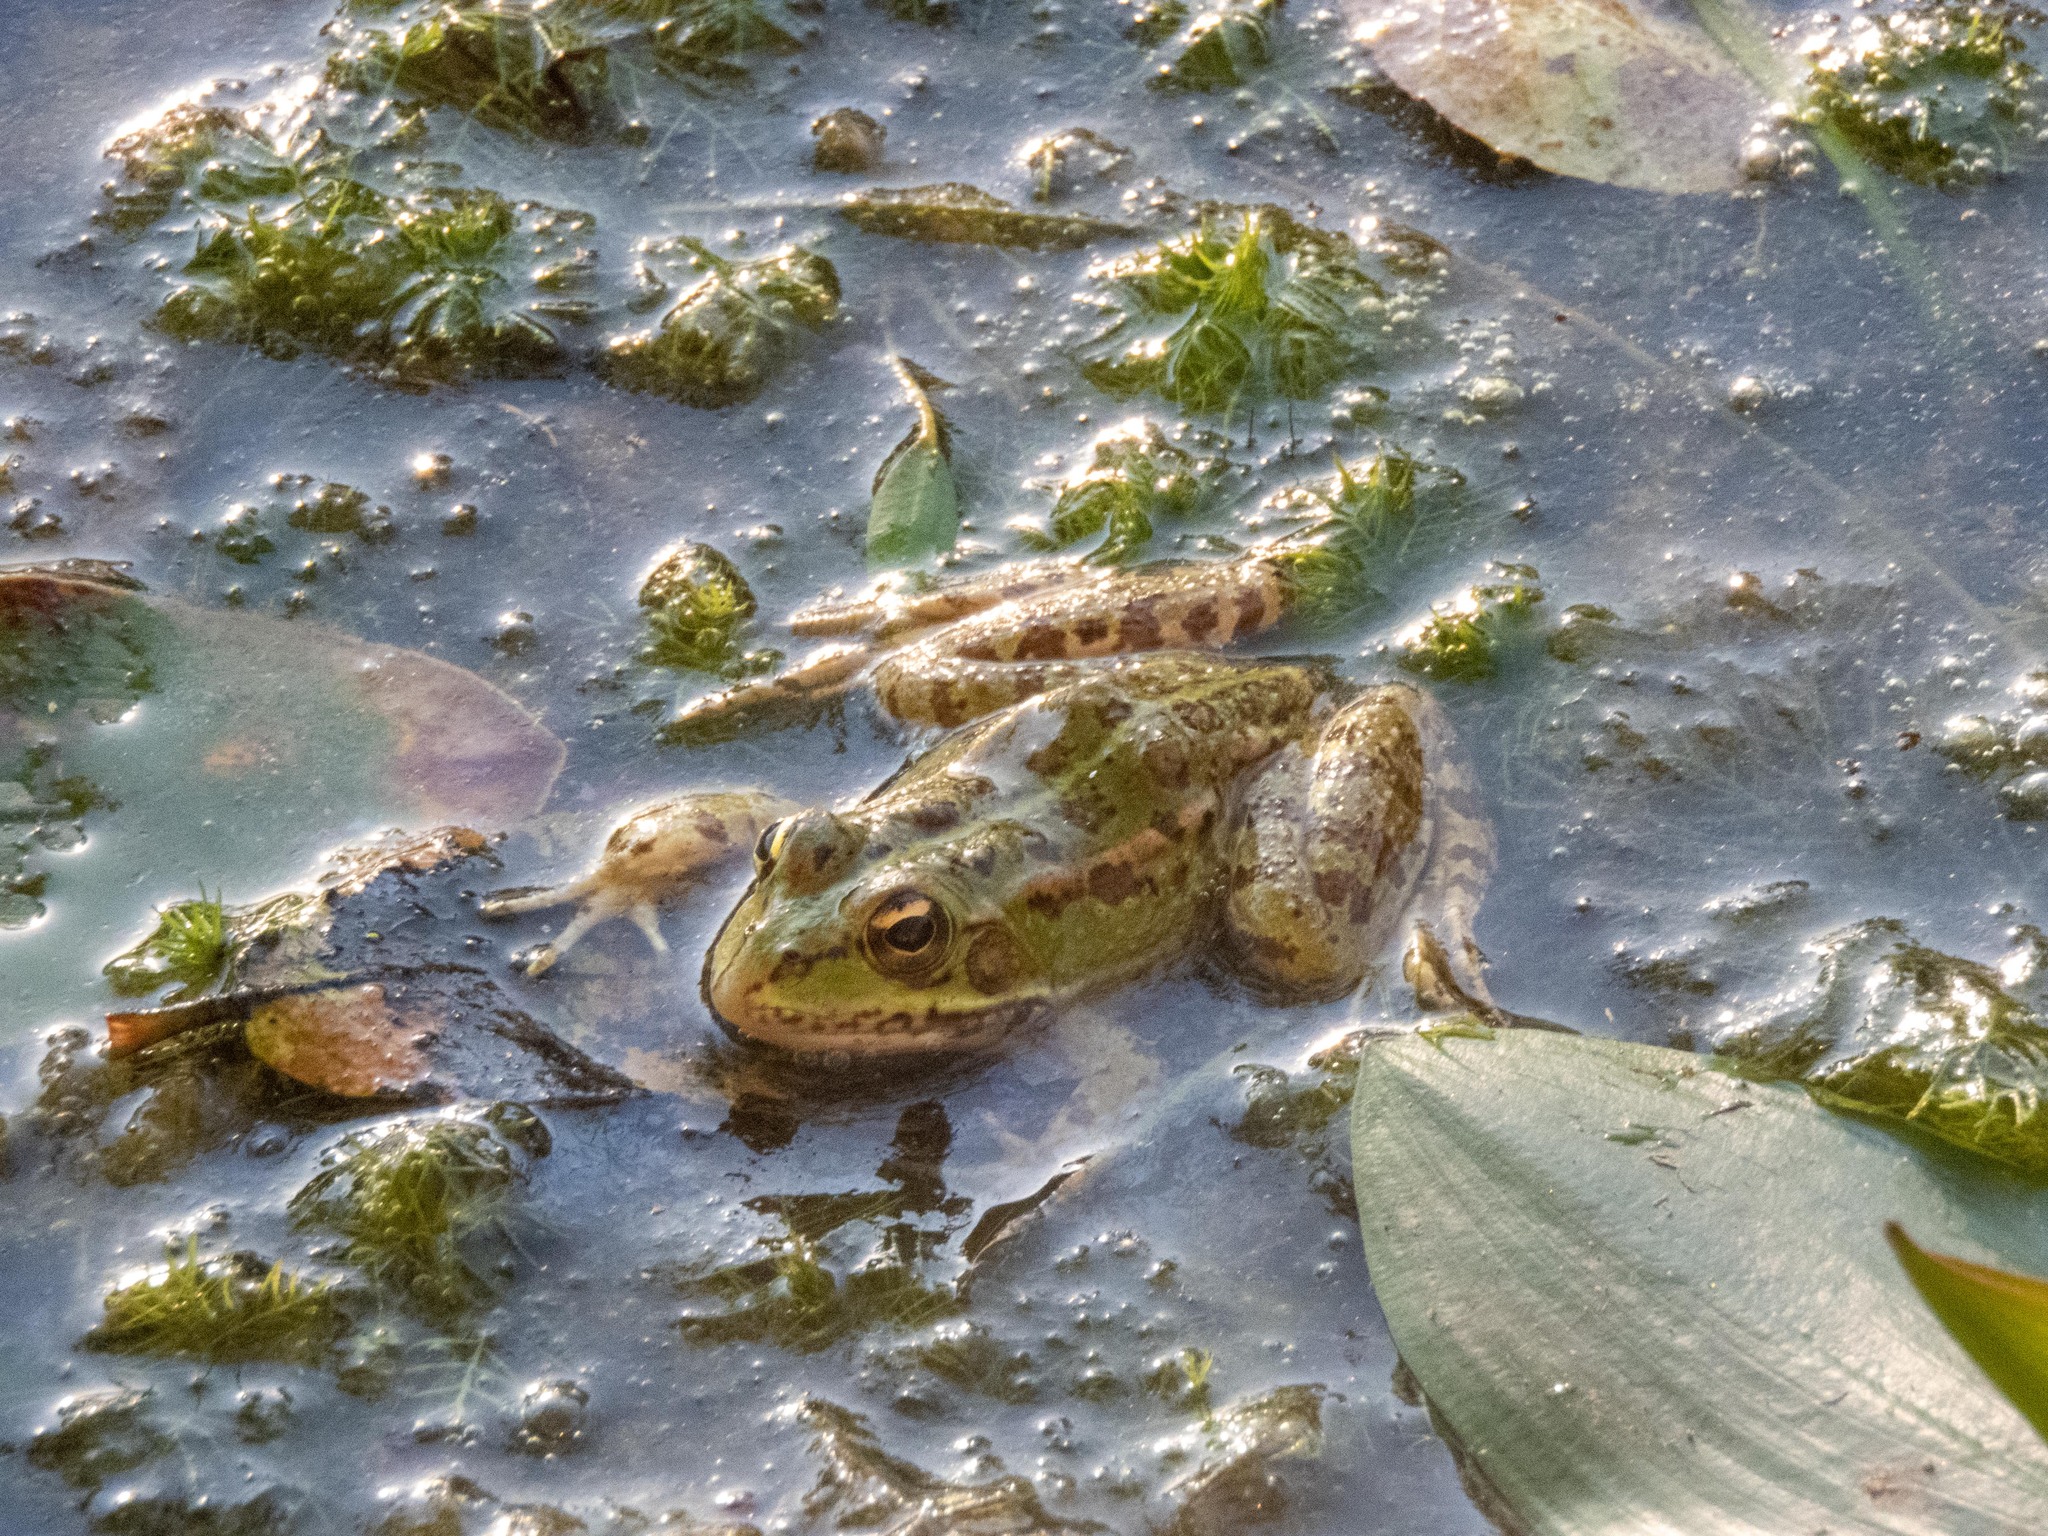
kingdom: Animalia
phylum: Chordata
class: Amphibia
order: Anura
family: Ranidae
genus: Pelophylax
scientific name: Pelophylax perezi
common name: Perez's frog
